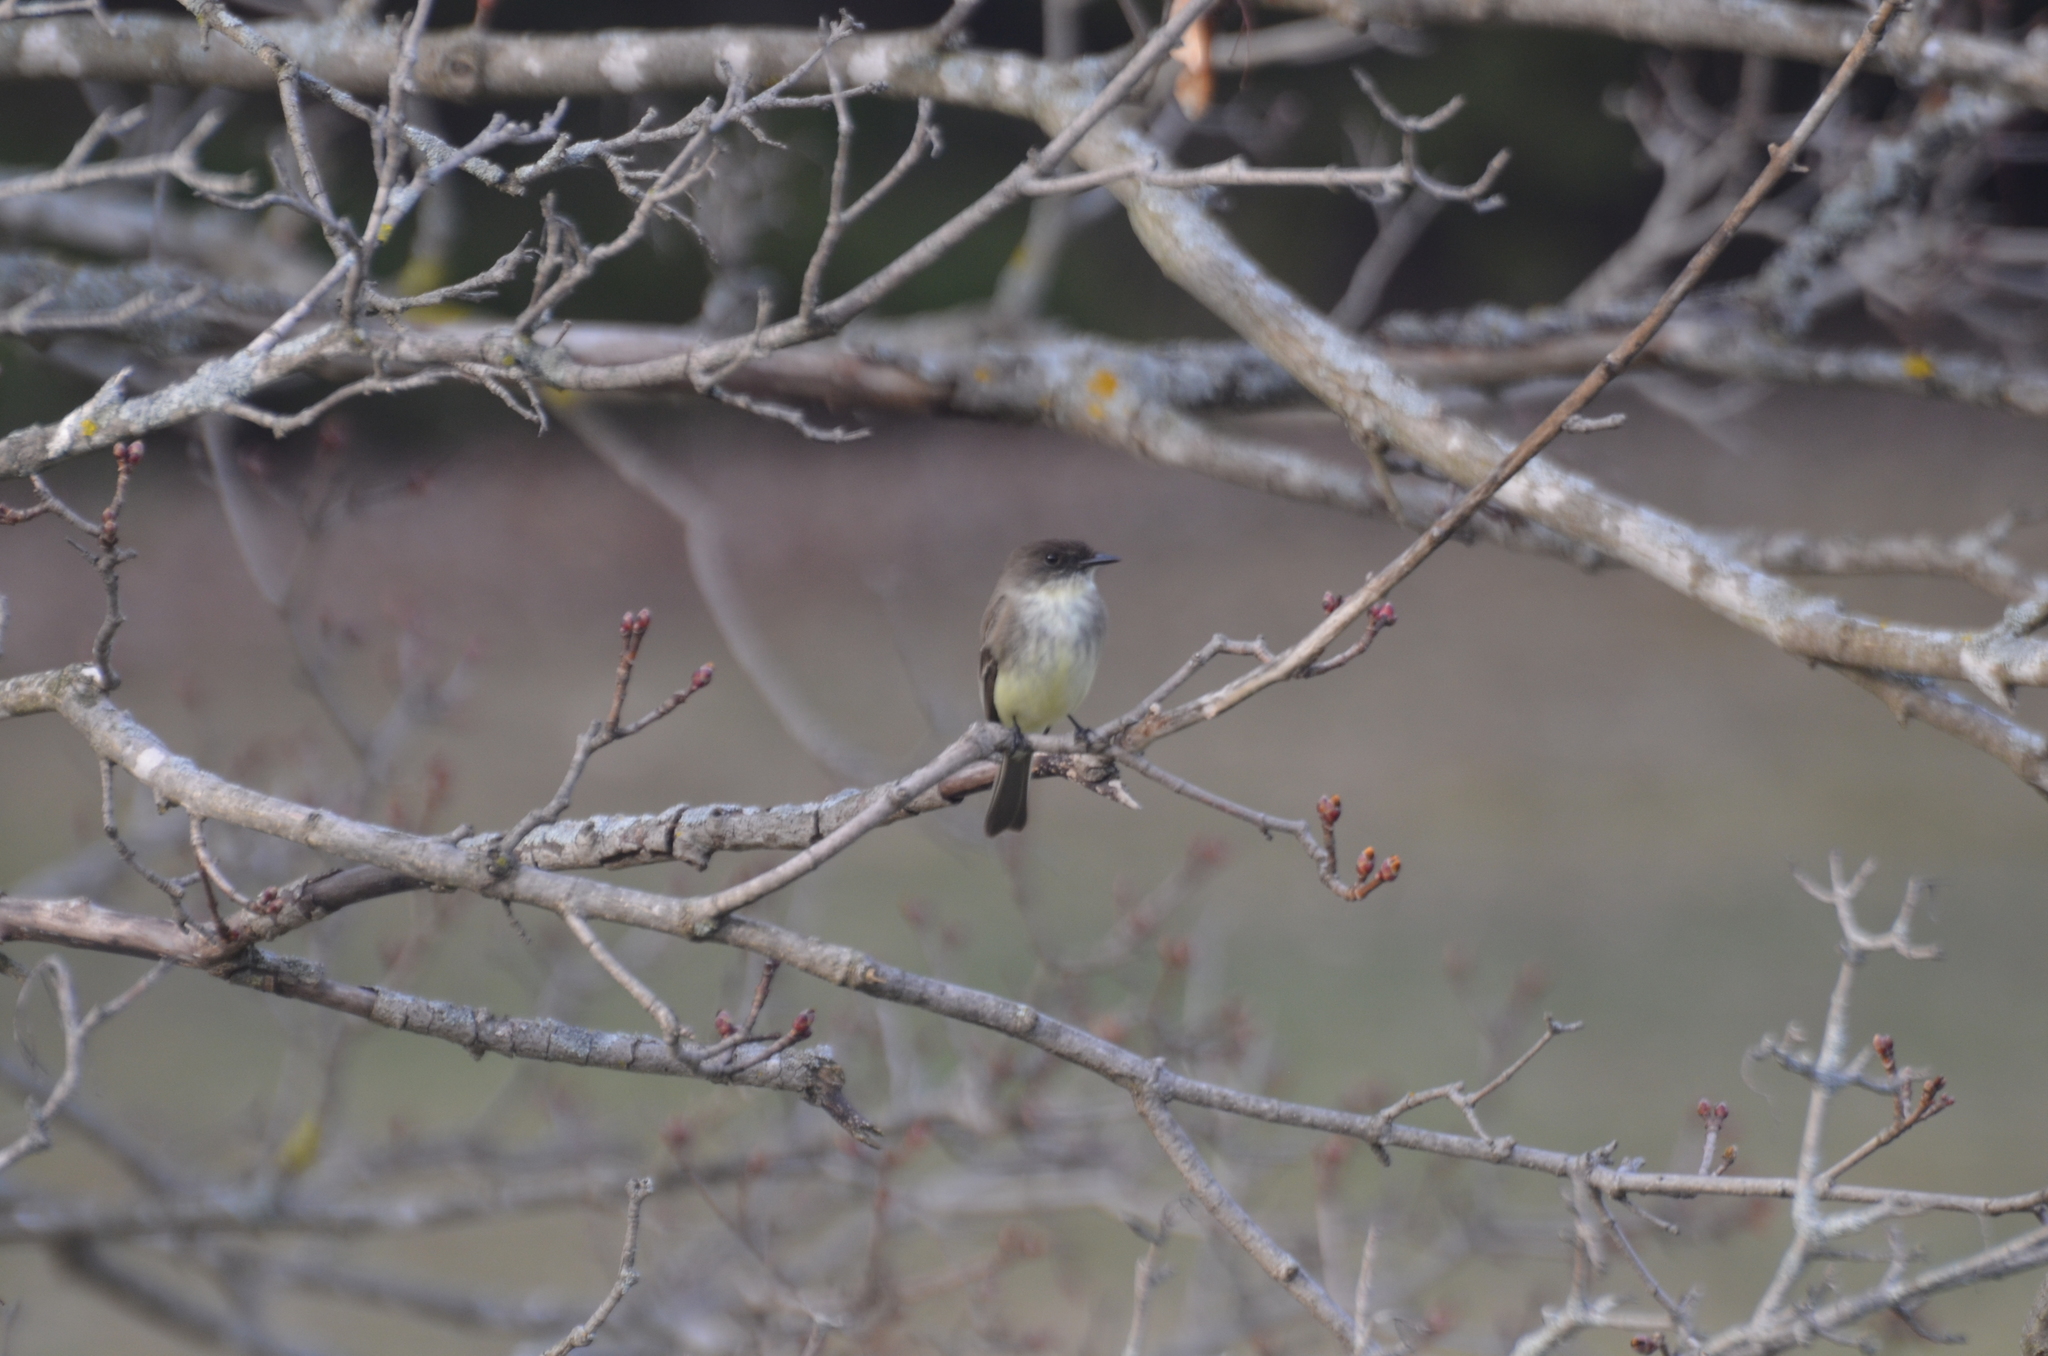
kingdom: Animalia
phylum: Chordata
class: Aves
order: Passeriformes
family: Tyrannidae
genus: Sayornis
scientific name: Sayornis phoebe
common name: Eastern phoebe
